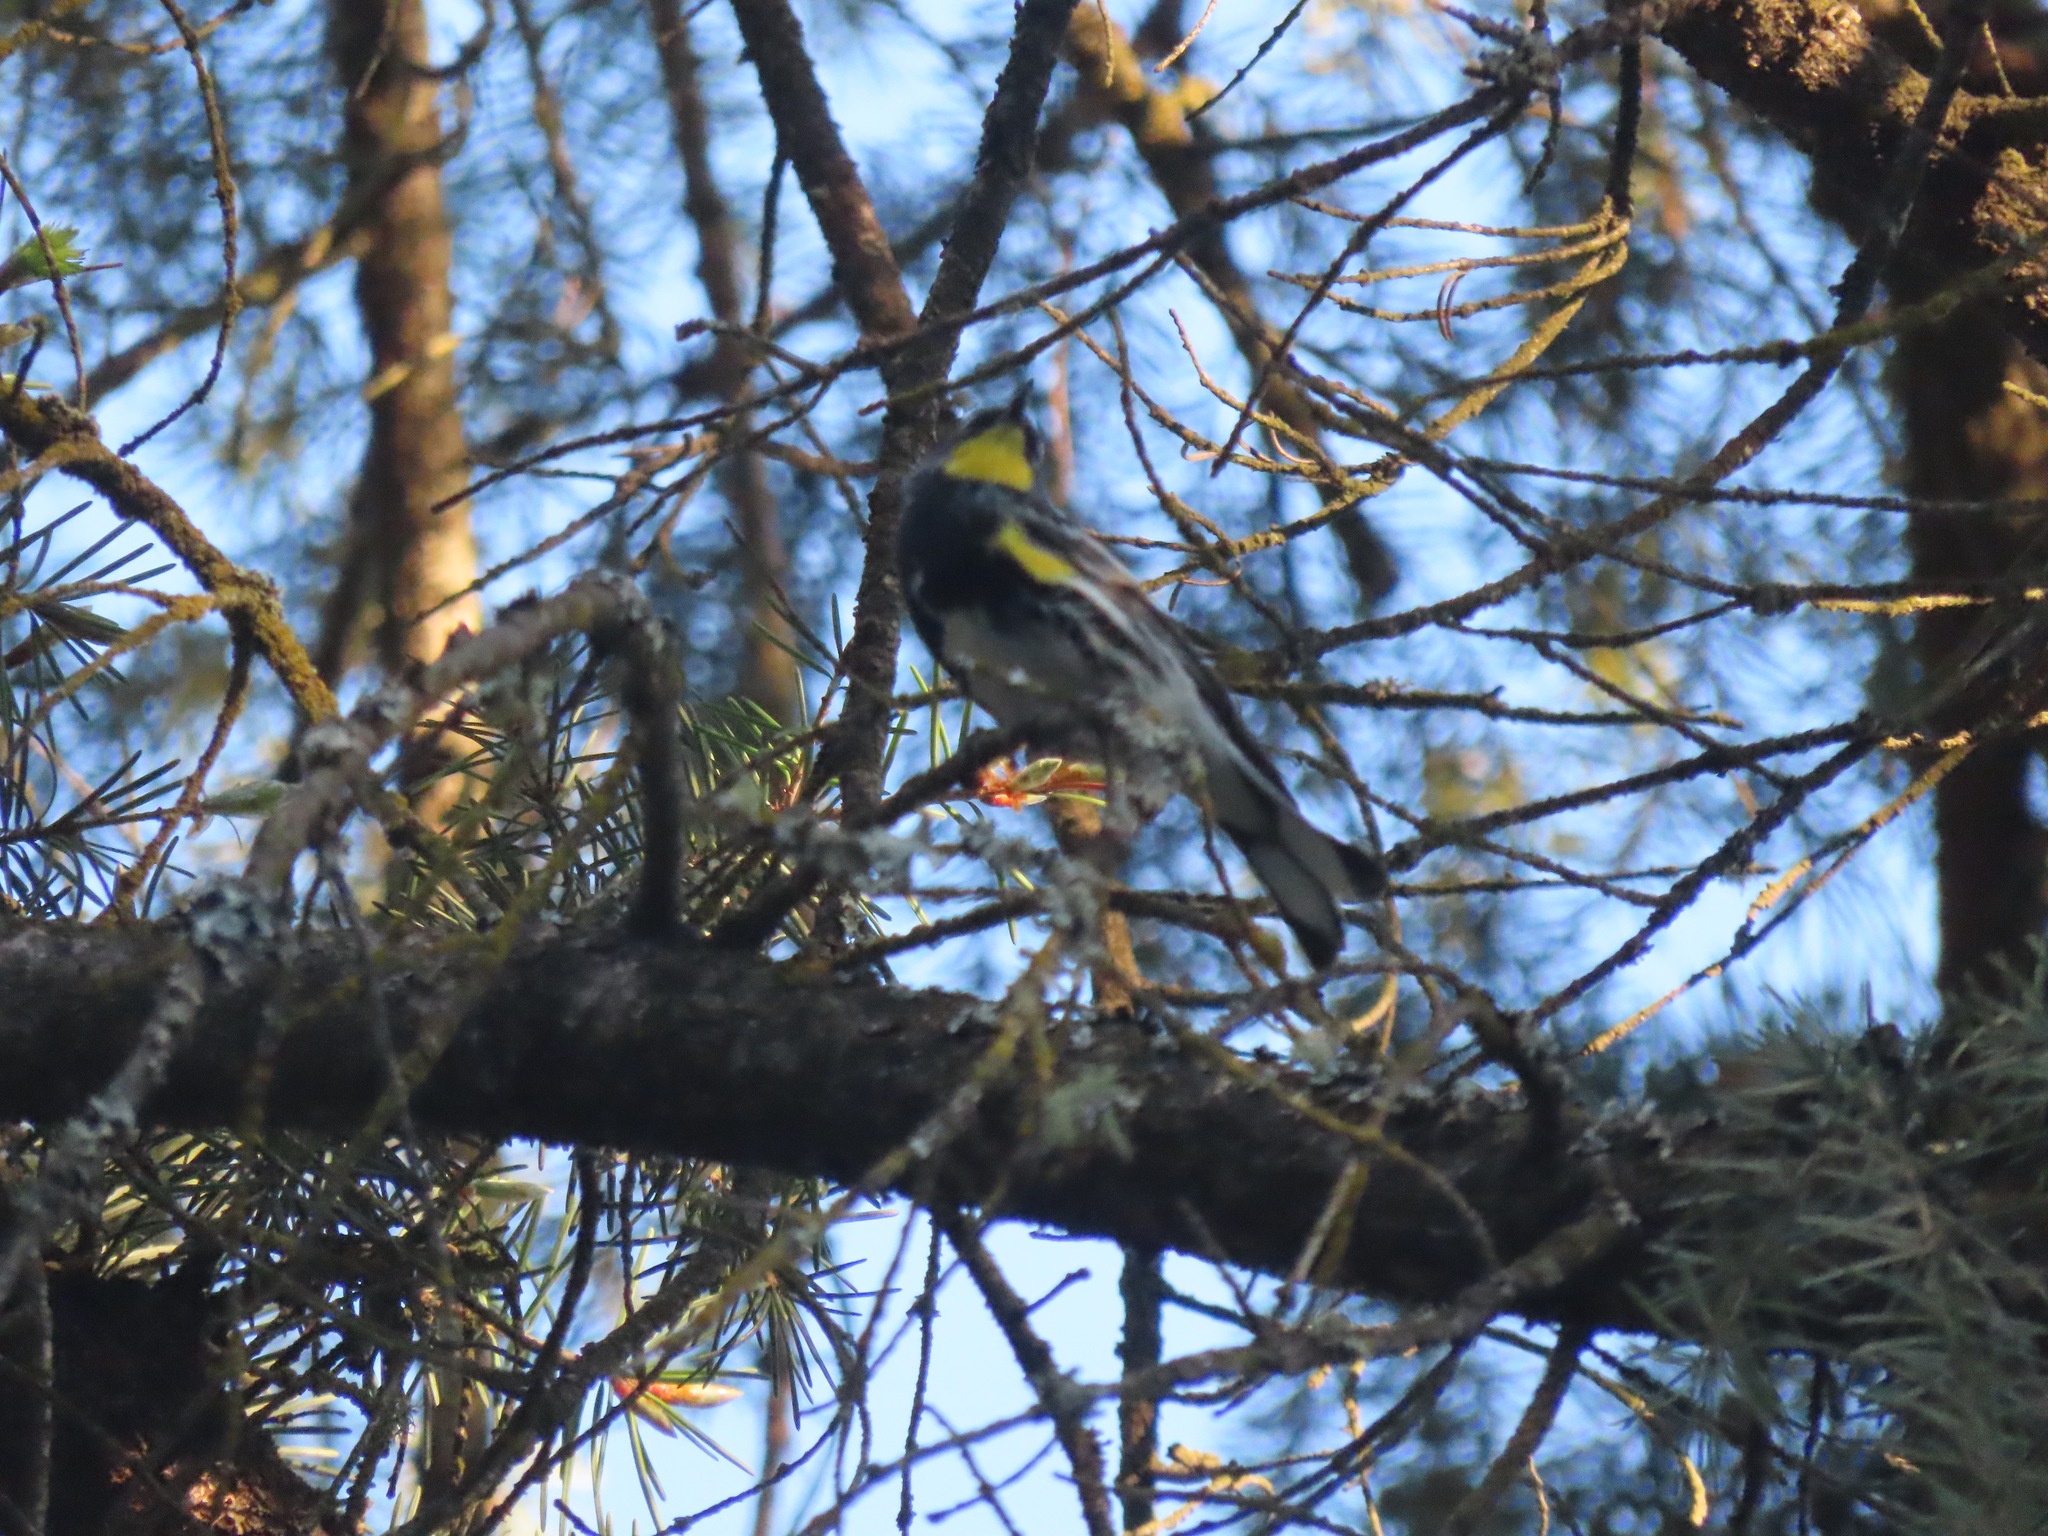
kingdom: Animalia
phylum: Chordata
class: Aves
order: Passeriformes
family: Parulidae
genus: Setophaga
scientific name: Setophaga coronata
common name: Myrtle warbler
